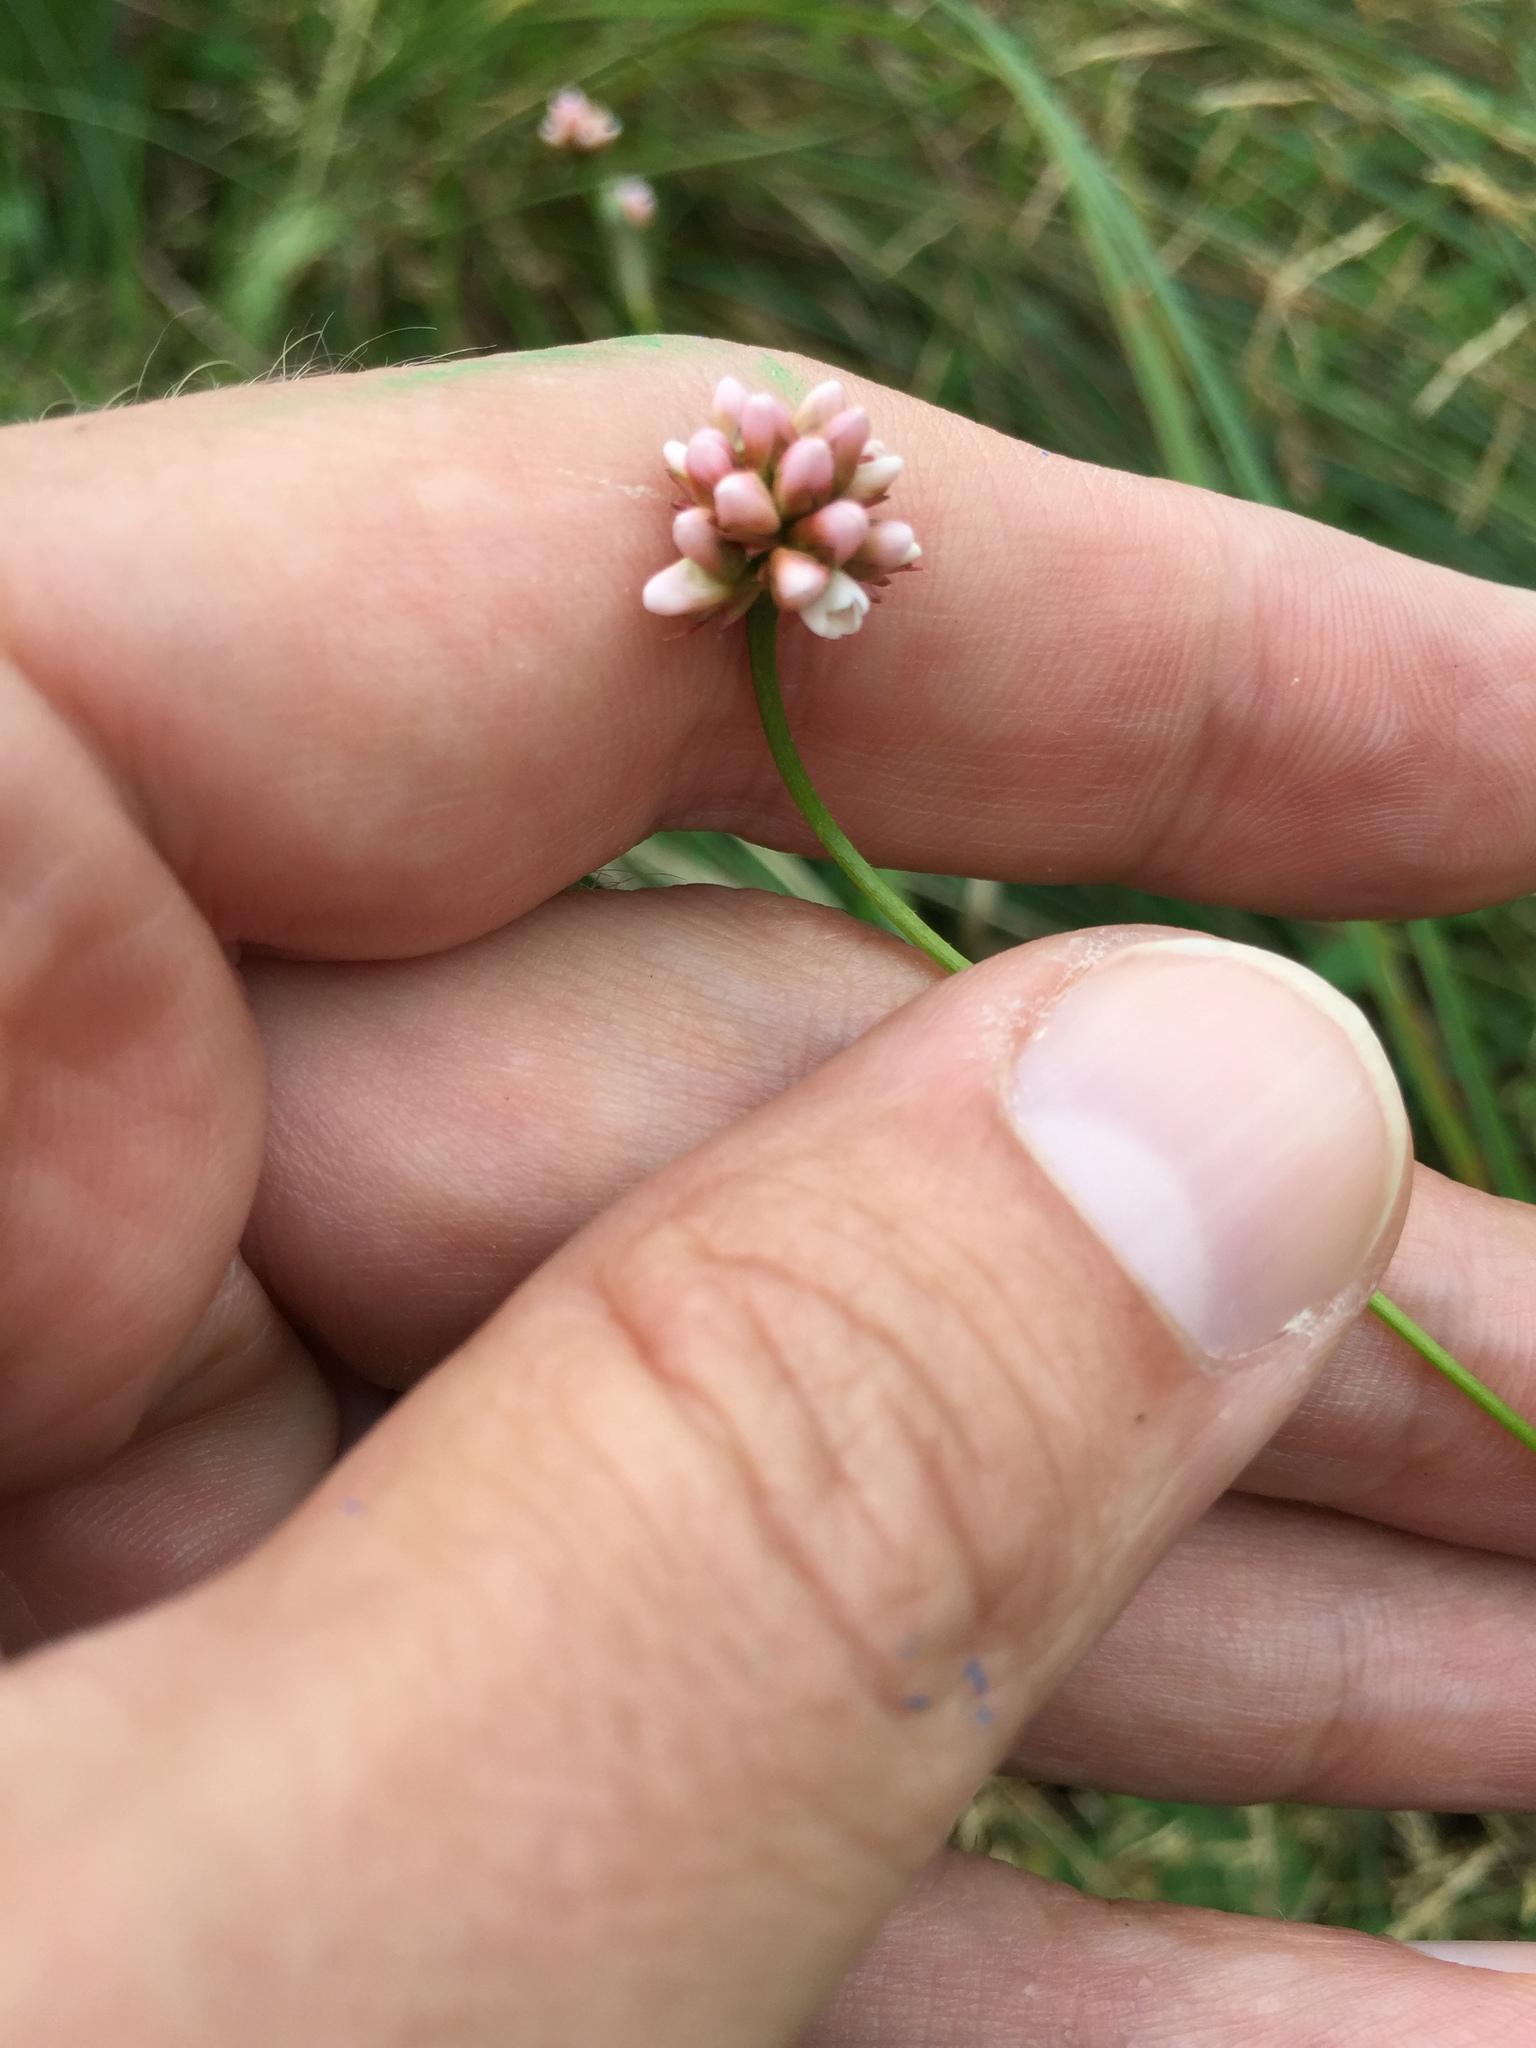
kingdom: Plantae
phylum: Tracheophyta
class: Magnoliopsida
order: Caryophyllales
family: Polygonaceae
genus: Persicaria
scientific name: Persicaria sagittata
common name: American tearthumb
